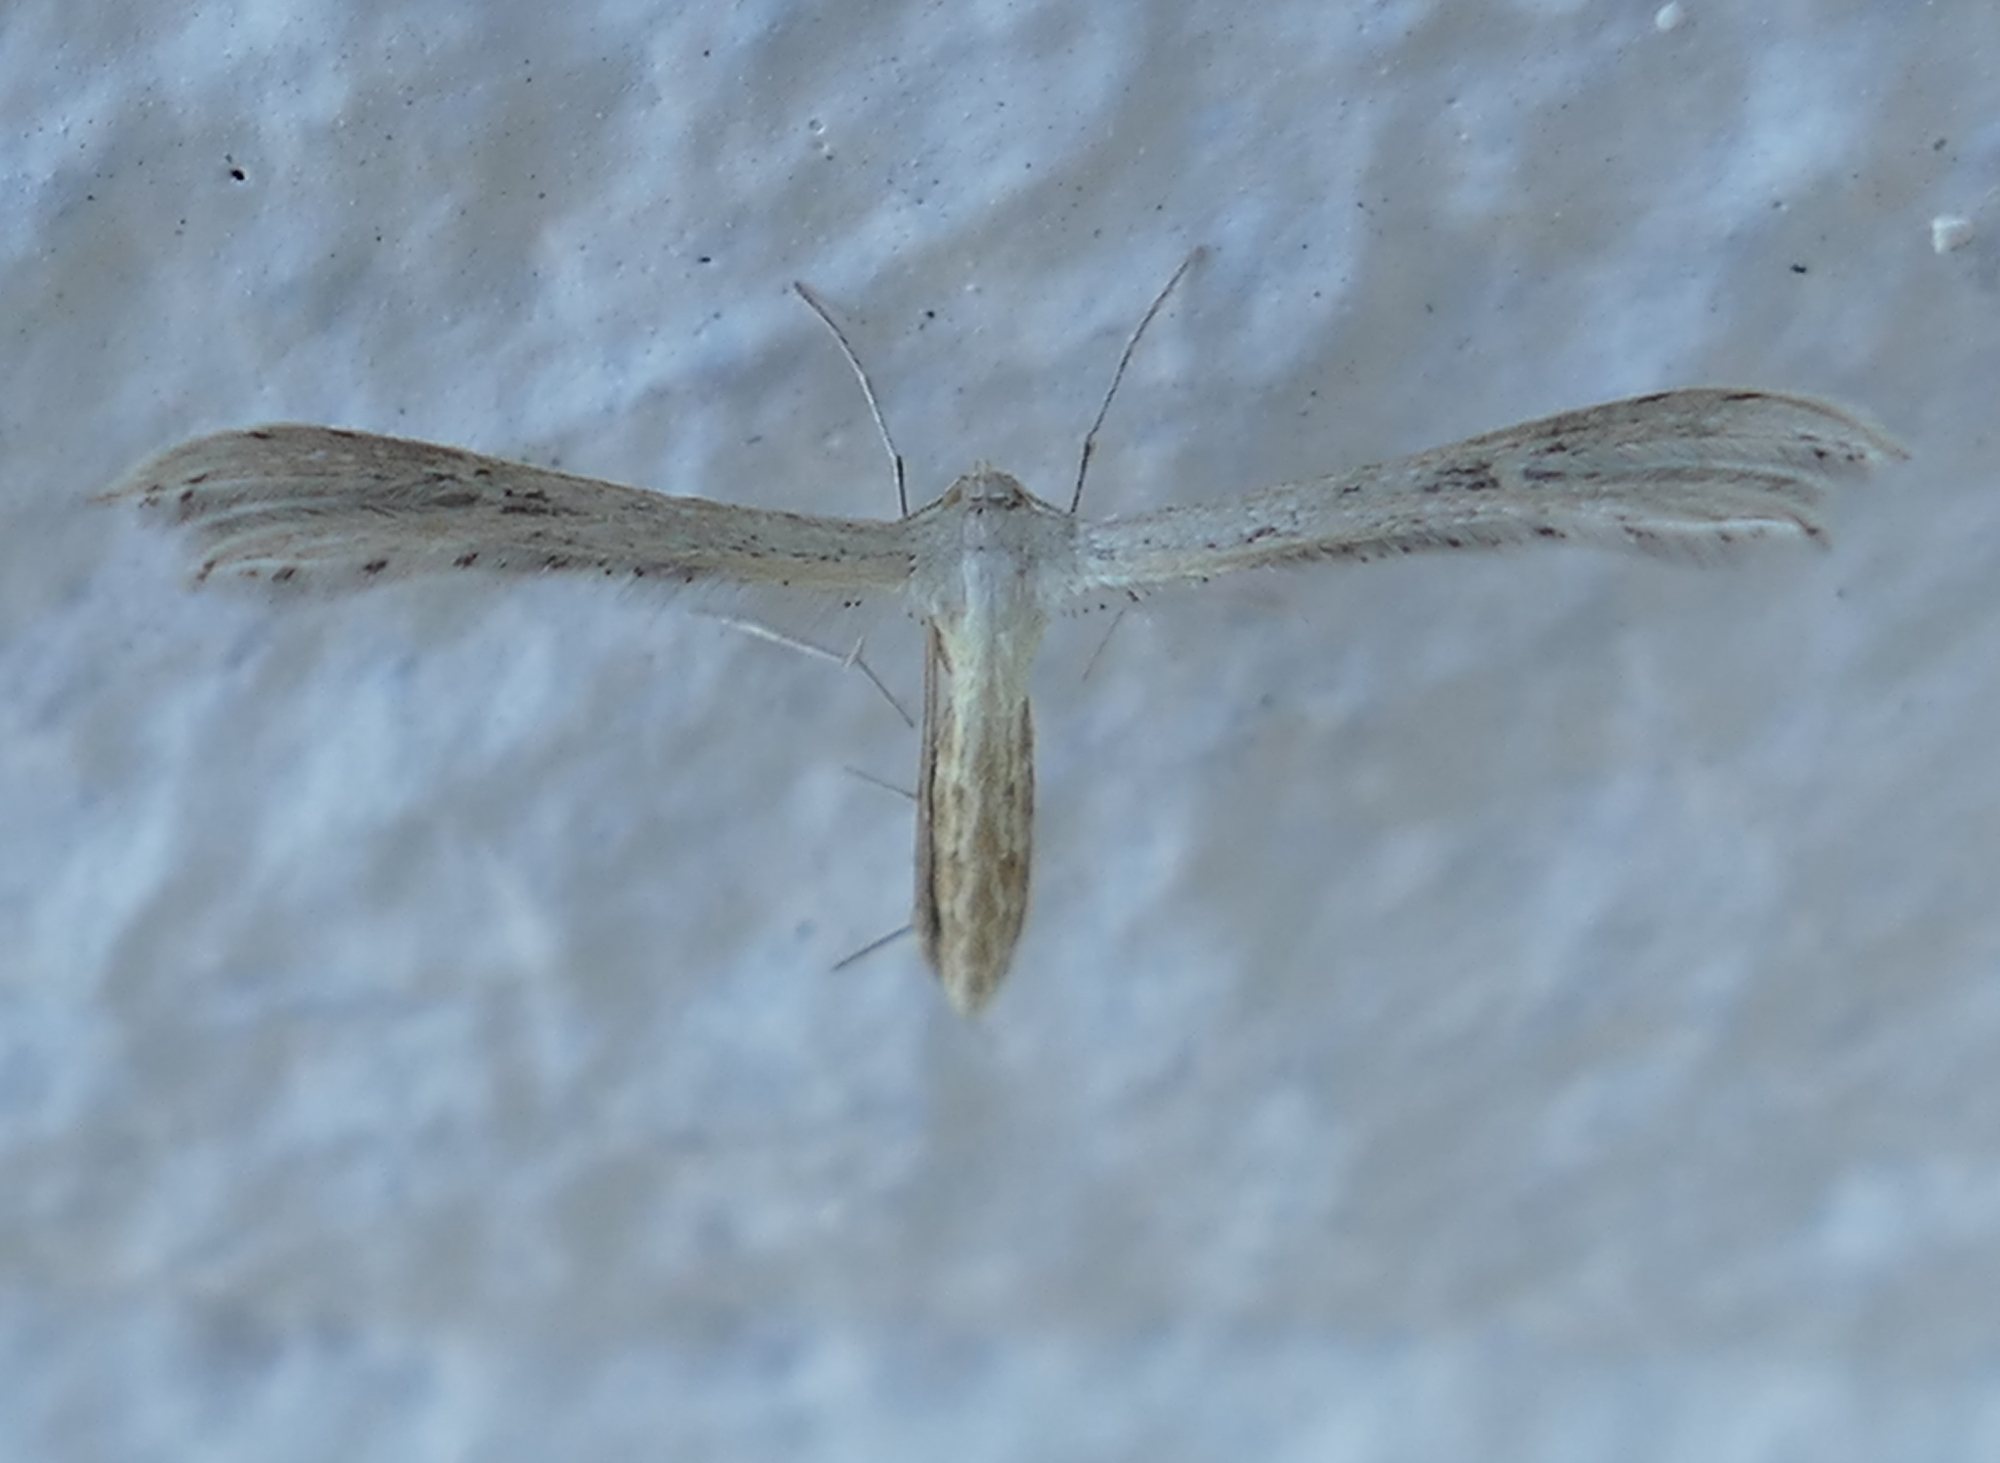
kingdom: Animalia
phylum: Arthropoda
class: Insecta
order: Lepidoptera
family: Pterophoridae
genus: Exelastis
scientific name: Exelastis montischristi
